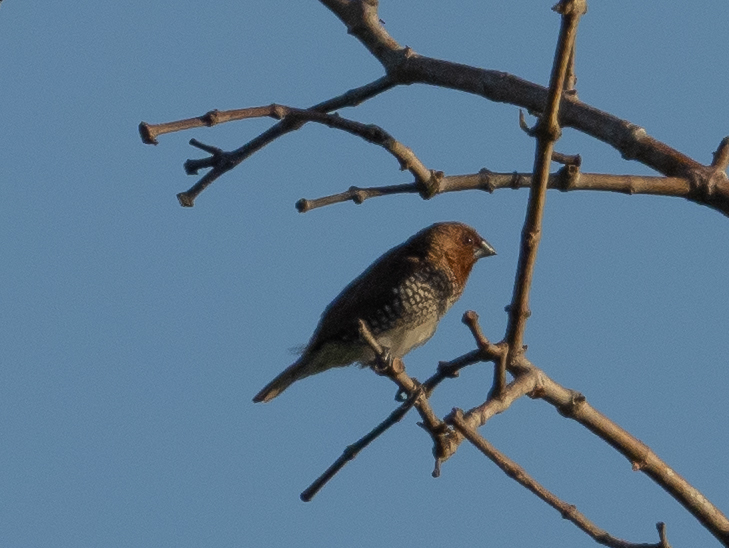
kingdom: Animalia
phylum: Chordata
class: Aves
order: Passeriformes
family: Estrildidae
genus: Lonchura
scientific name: Lonchura punctulata
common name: Scaly-breasted munia
